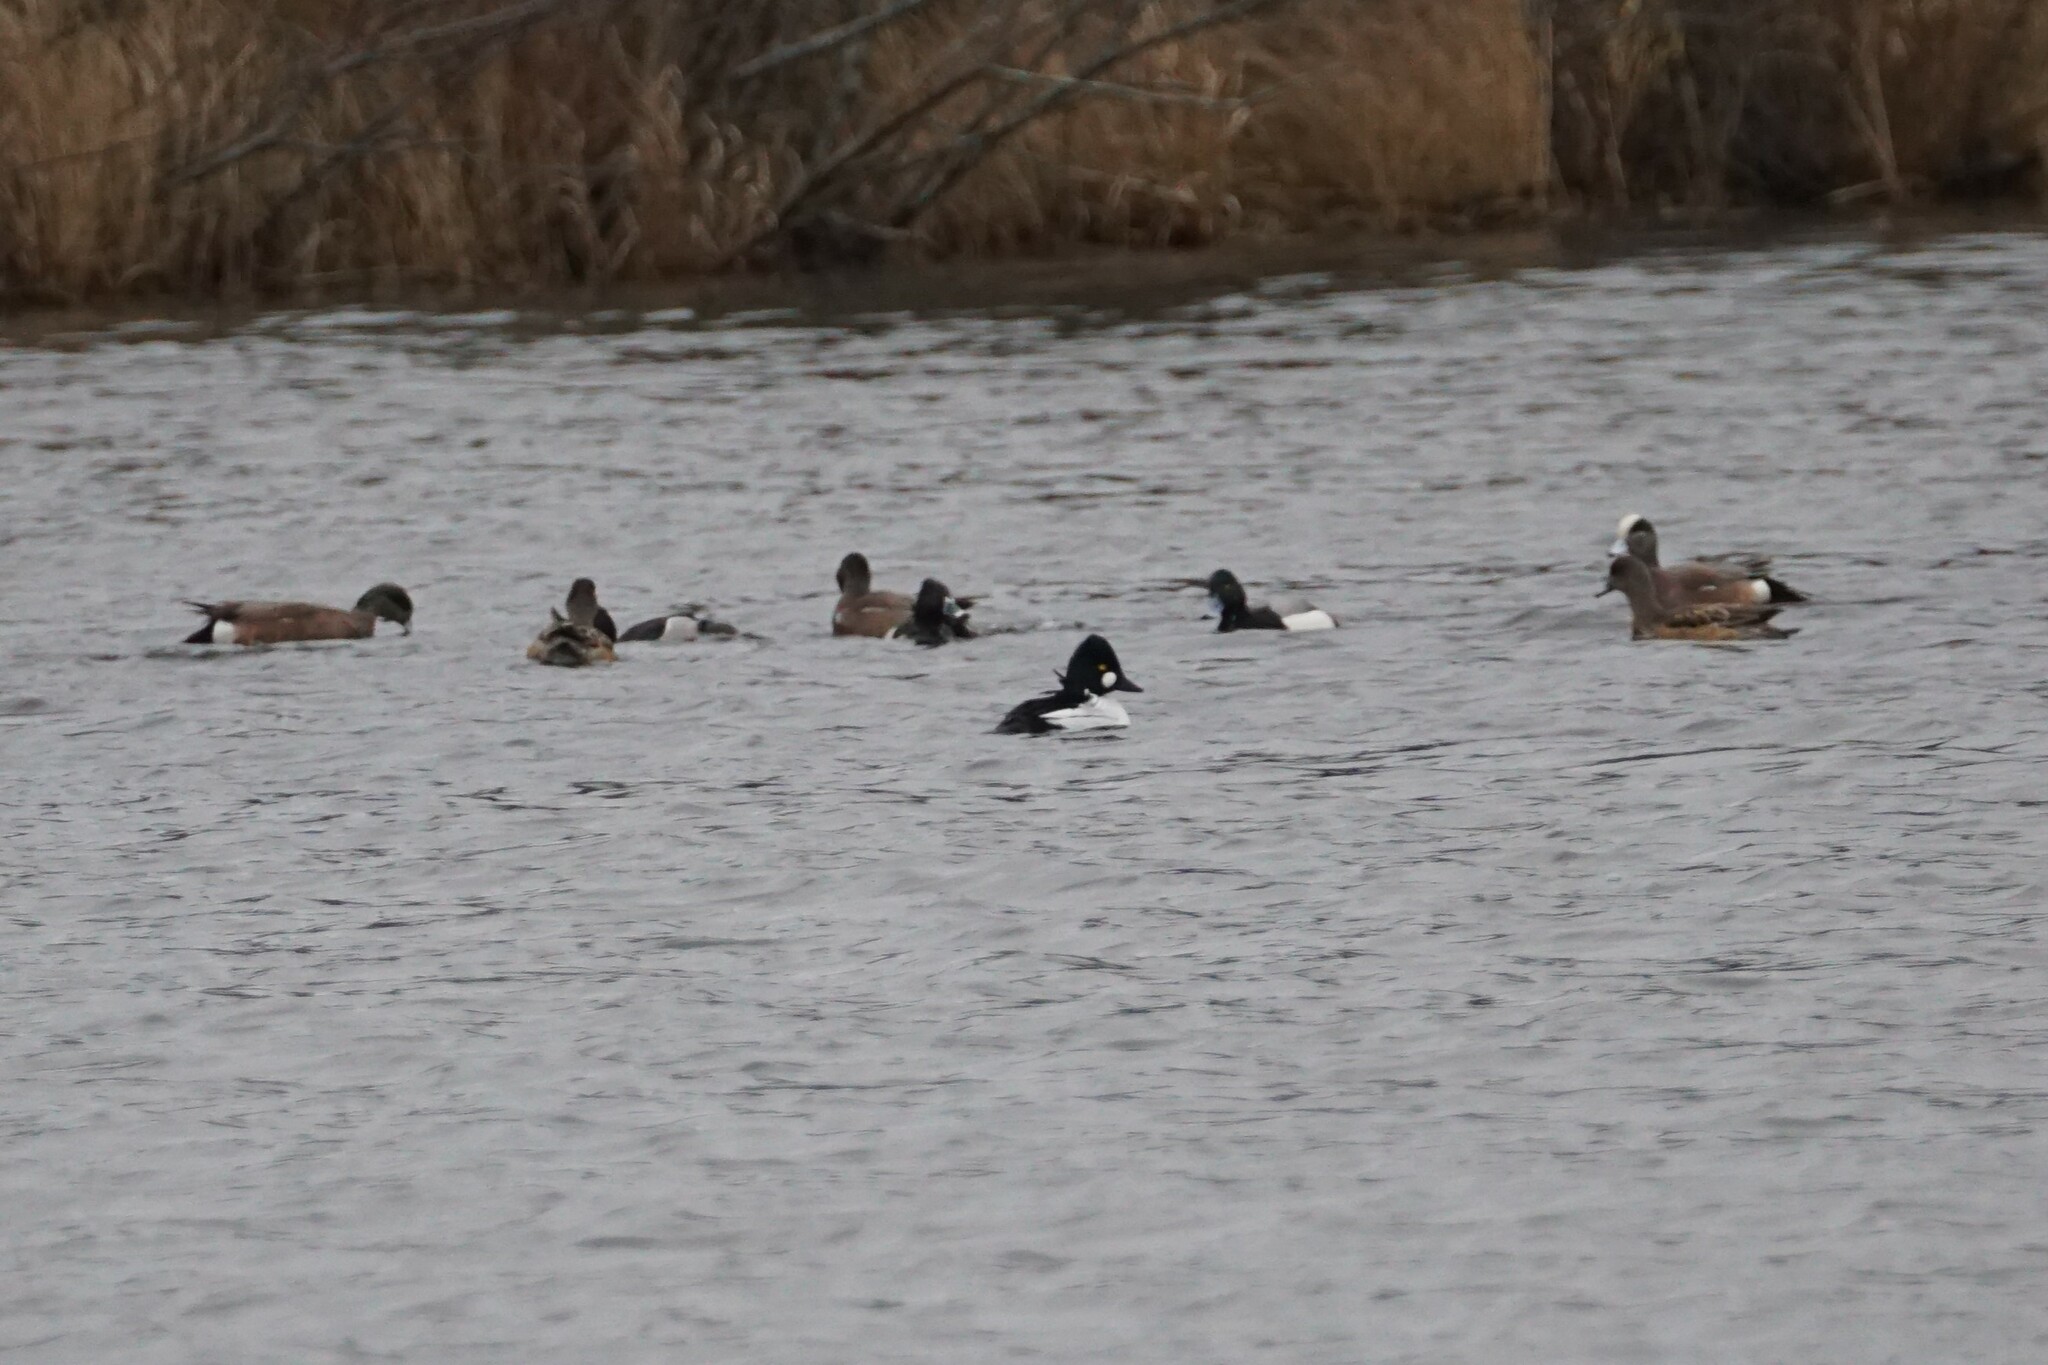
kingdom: Animalia
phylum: Chordata
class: Aves
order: Anseriformes
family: Anatidae
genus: Bucephala
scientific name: Bucephala clangula
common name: Common goldeneye
